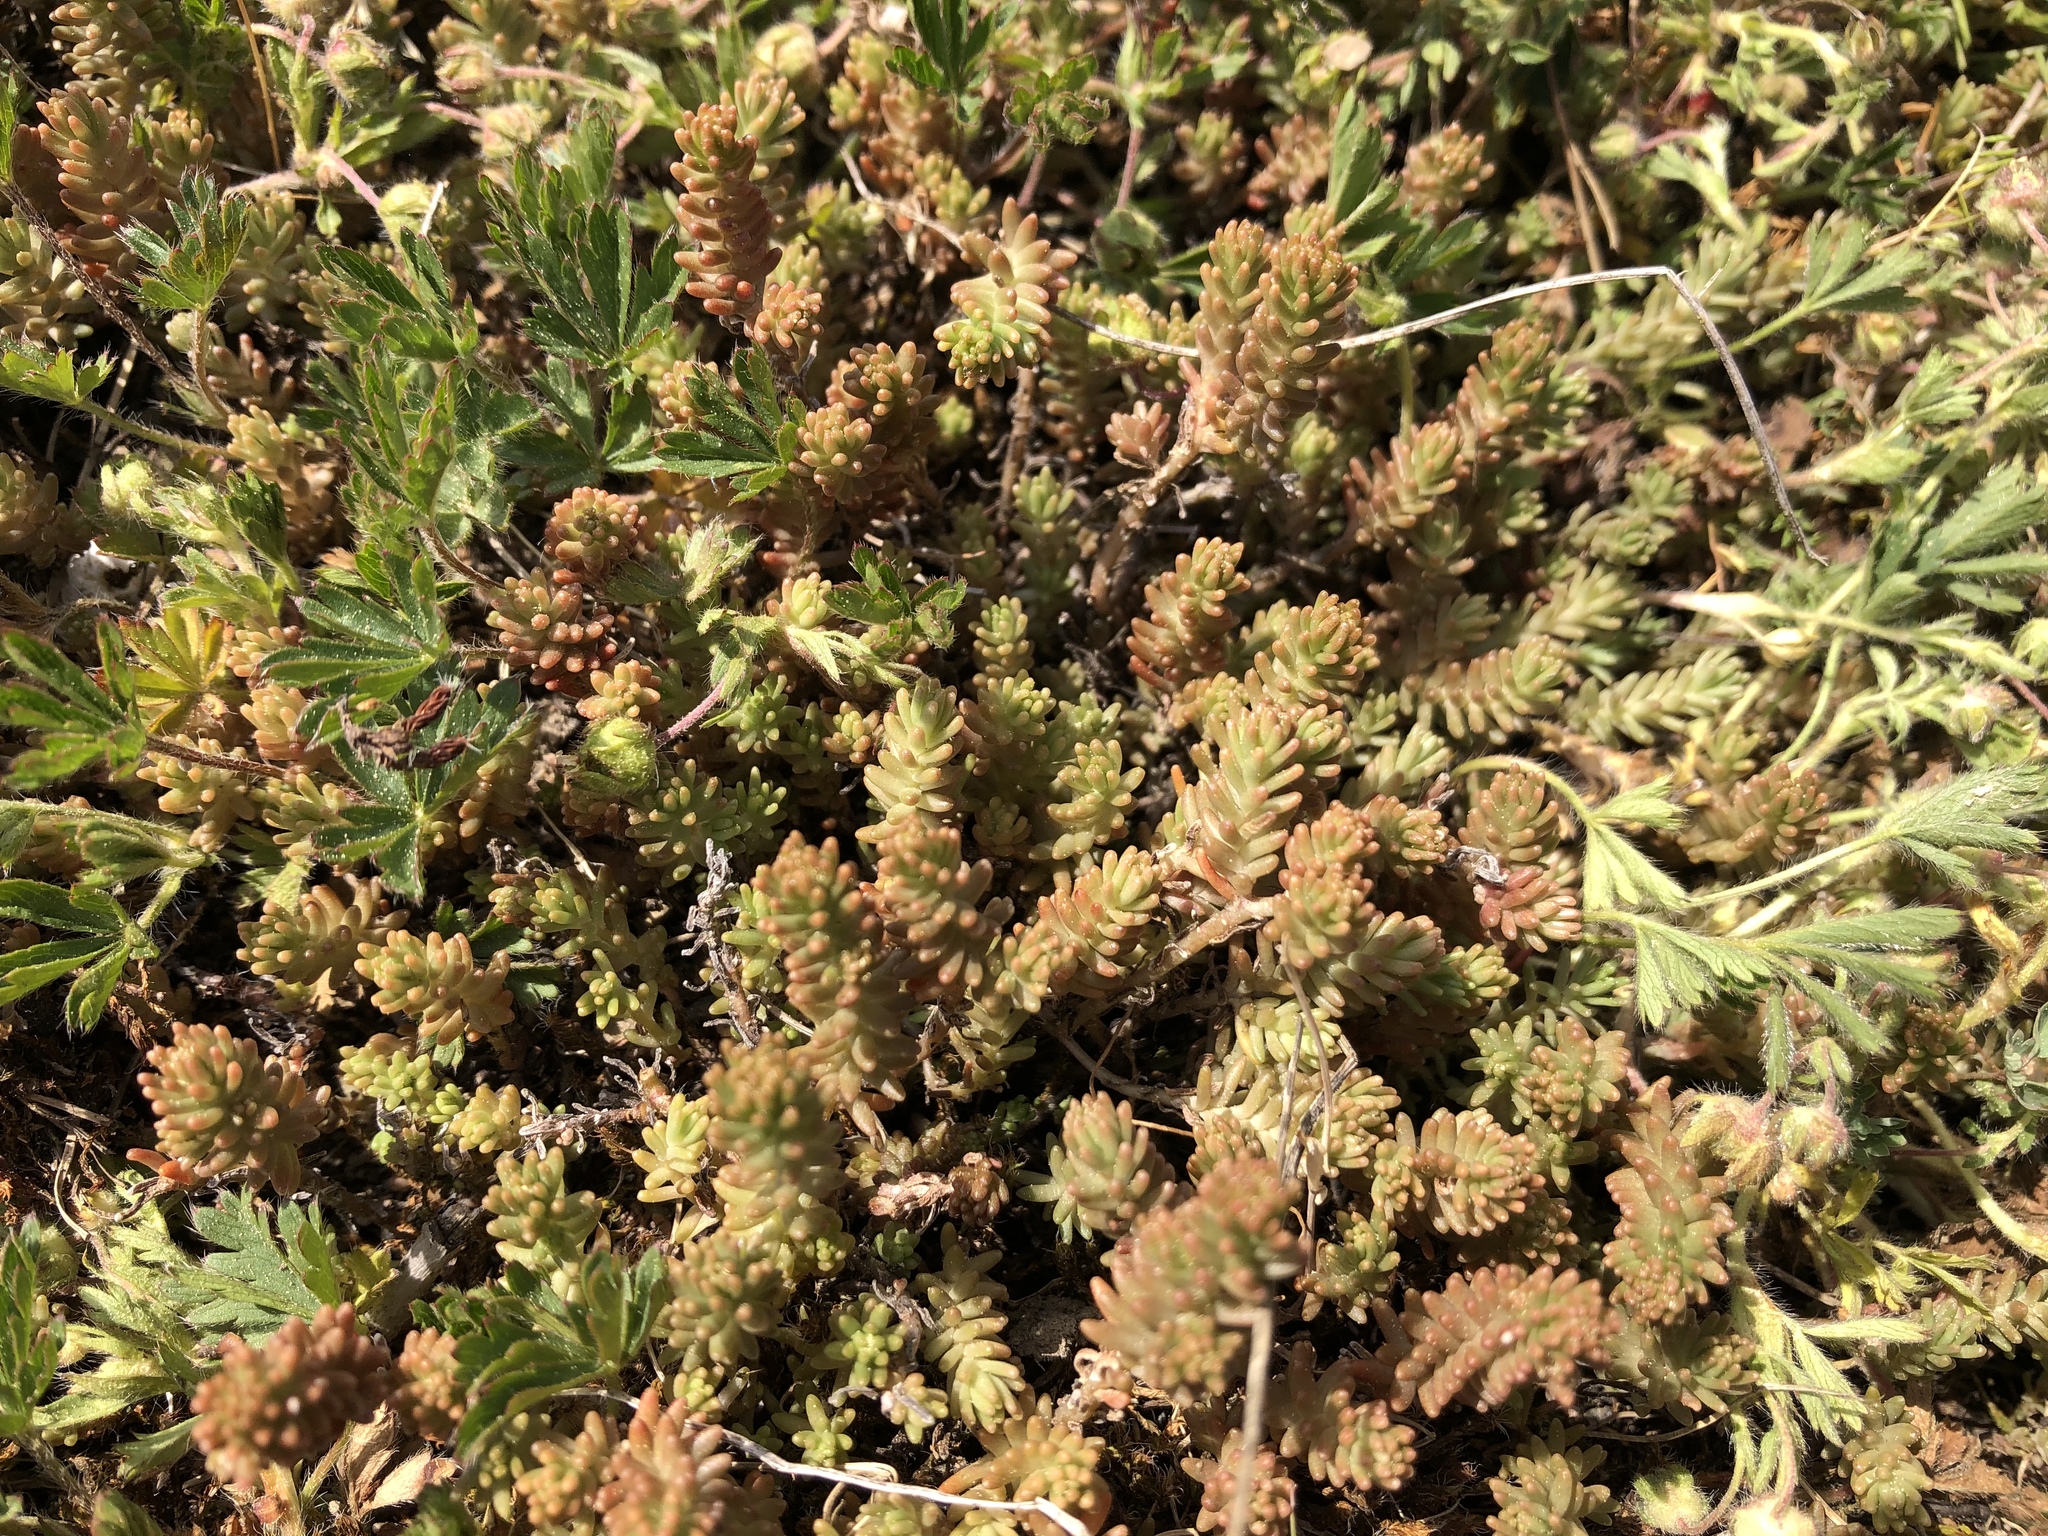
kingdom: Plantae
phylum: Tracheophyta
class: Magnoliopsida
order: Saxifragales
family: Crassulaceae
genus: Sedum
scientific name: Sedum sexangulare
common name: Tasteless stonecrop
